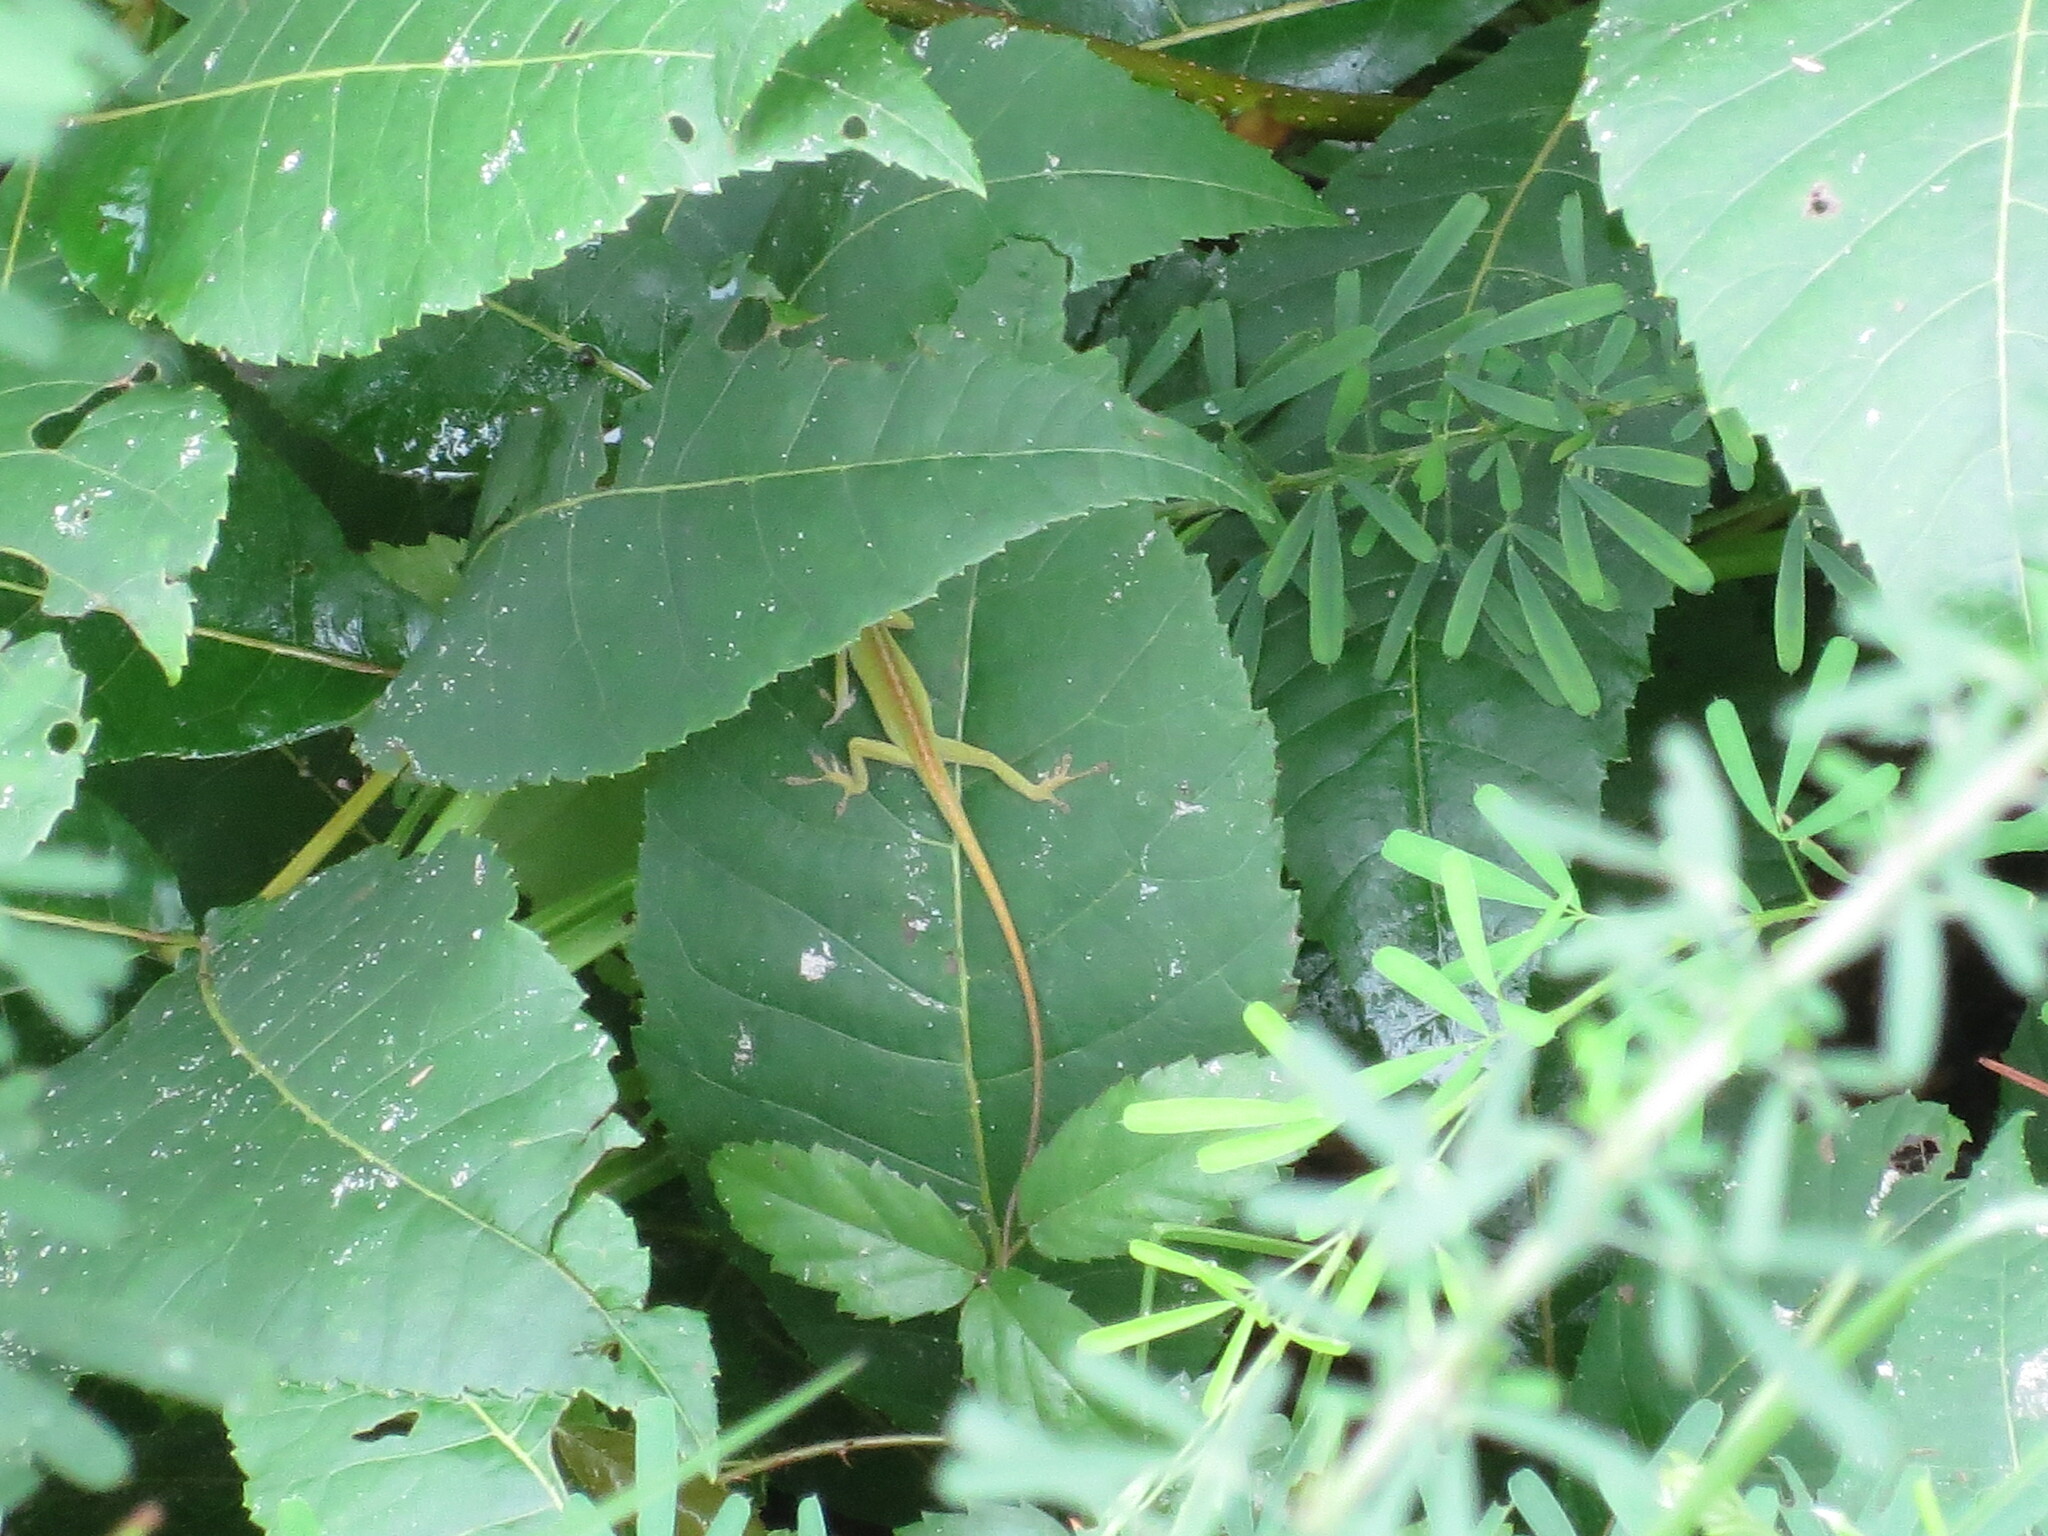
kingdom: Animalia
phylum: Chordata
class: Squamata
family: Dactyloidae
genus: Anolis
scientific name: Anolis carolinensis
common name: Green anole
